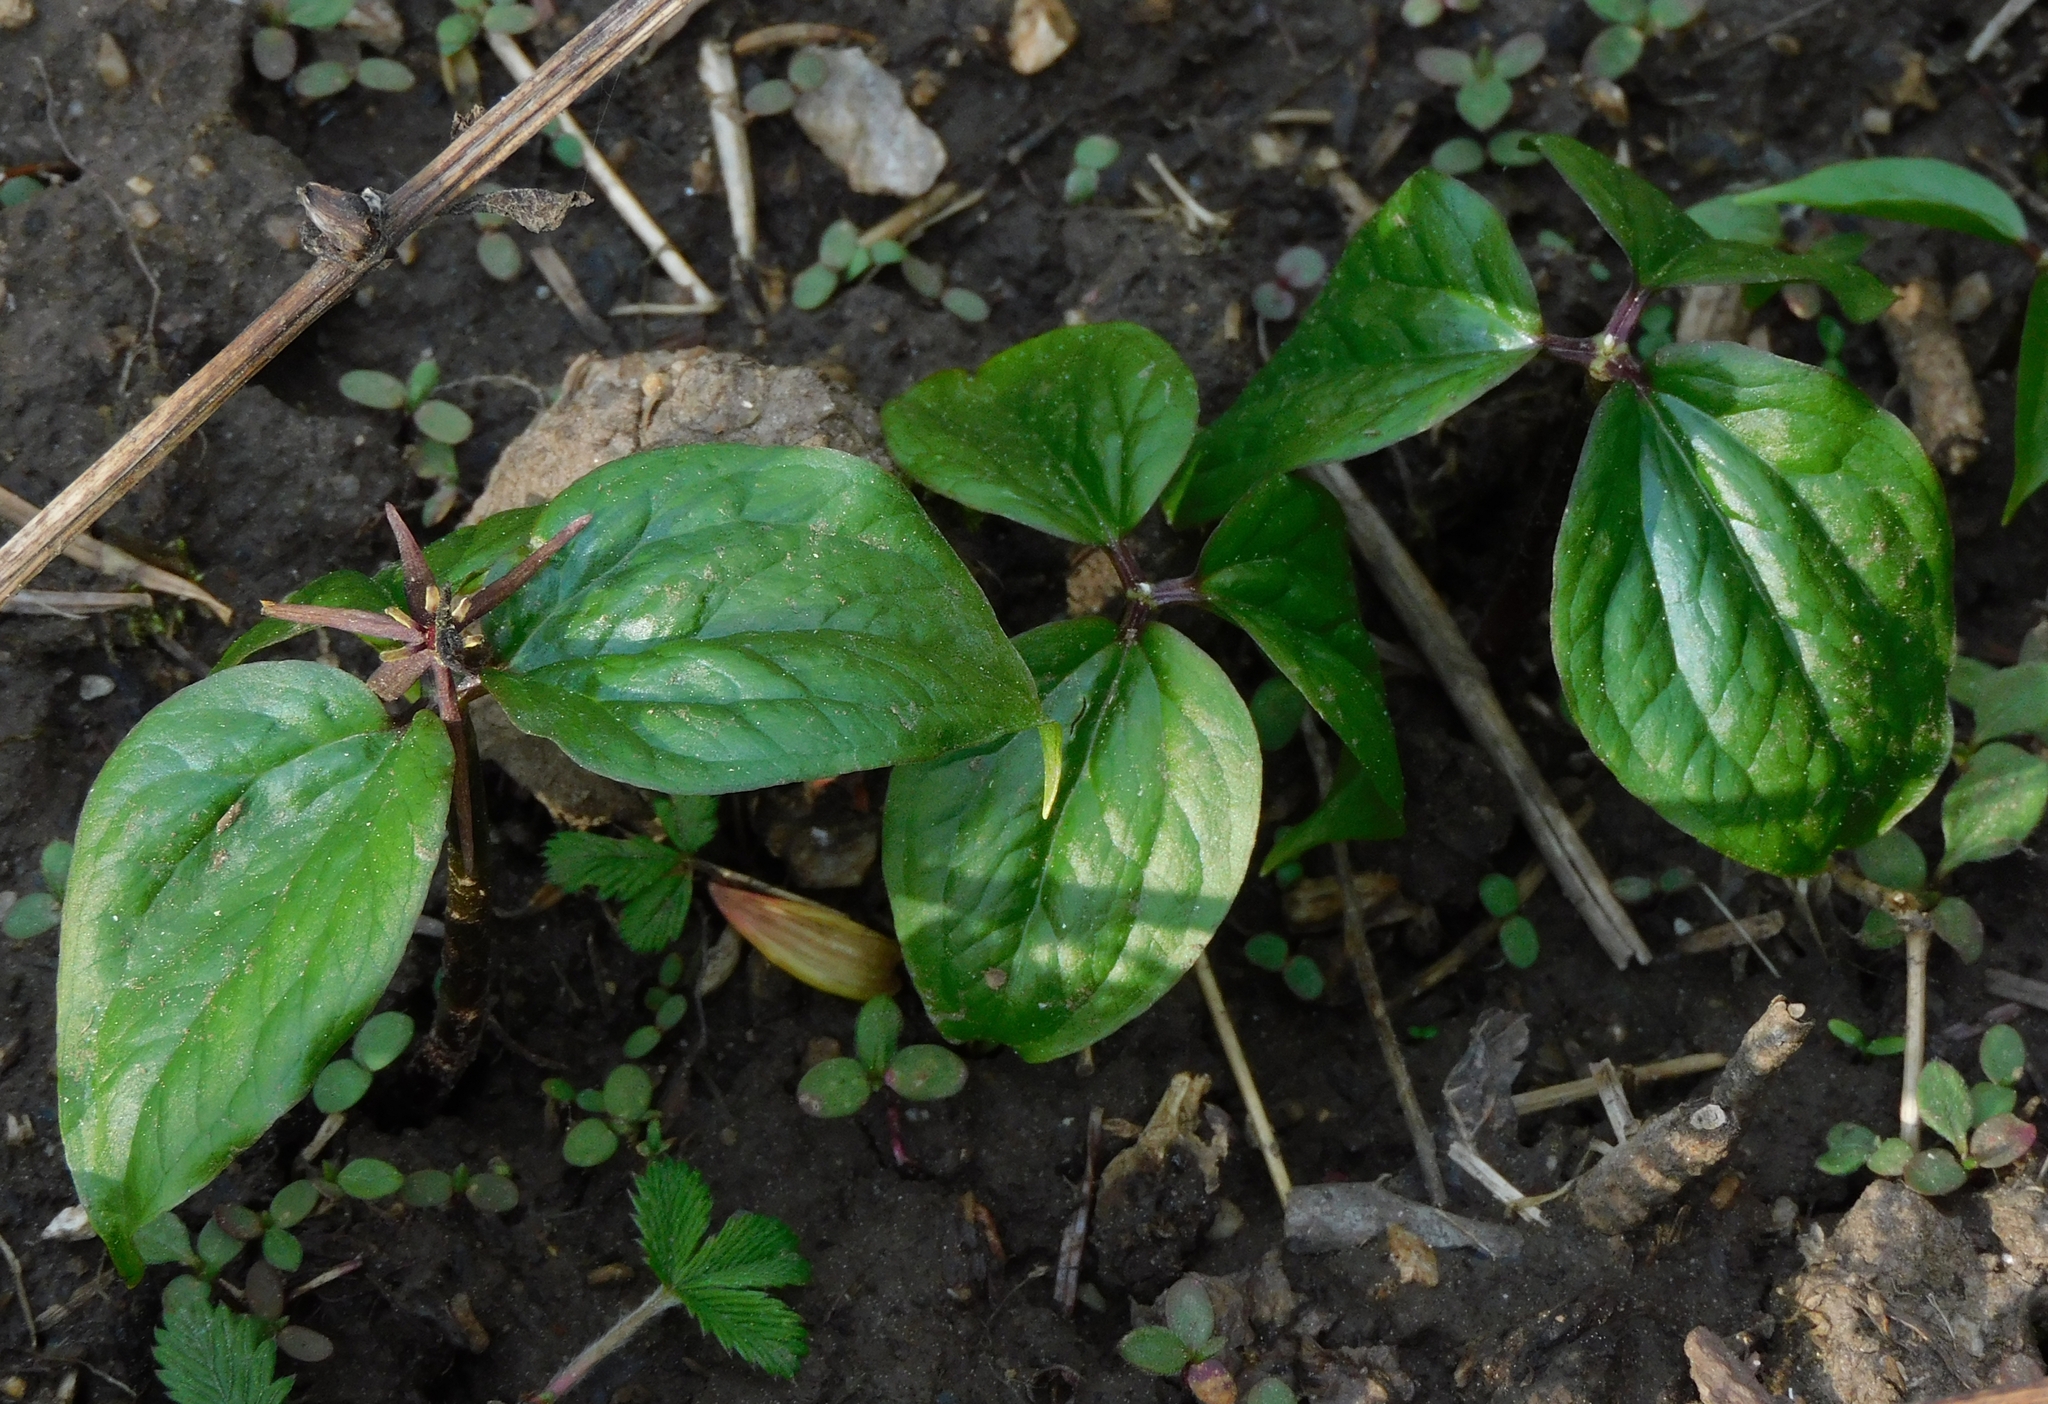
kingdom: Plantae
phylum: Tracheophyta
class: Liliopsida
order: Liliales
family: Melanthiaceae
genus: Trillium
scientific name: Trillium govanianum
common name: Himalayan trillium
